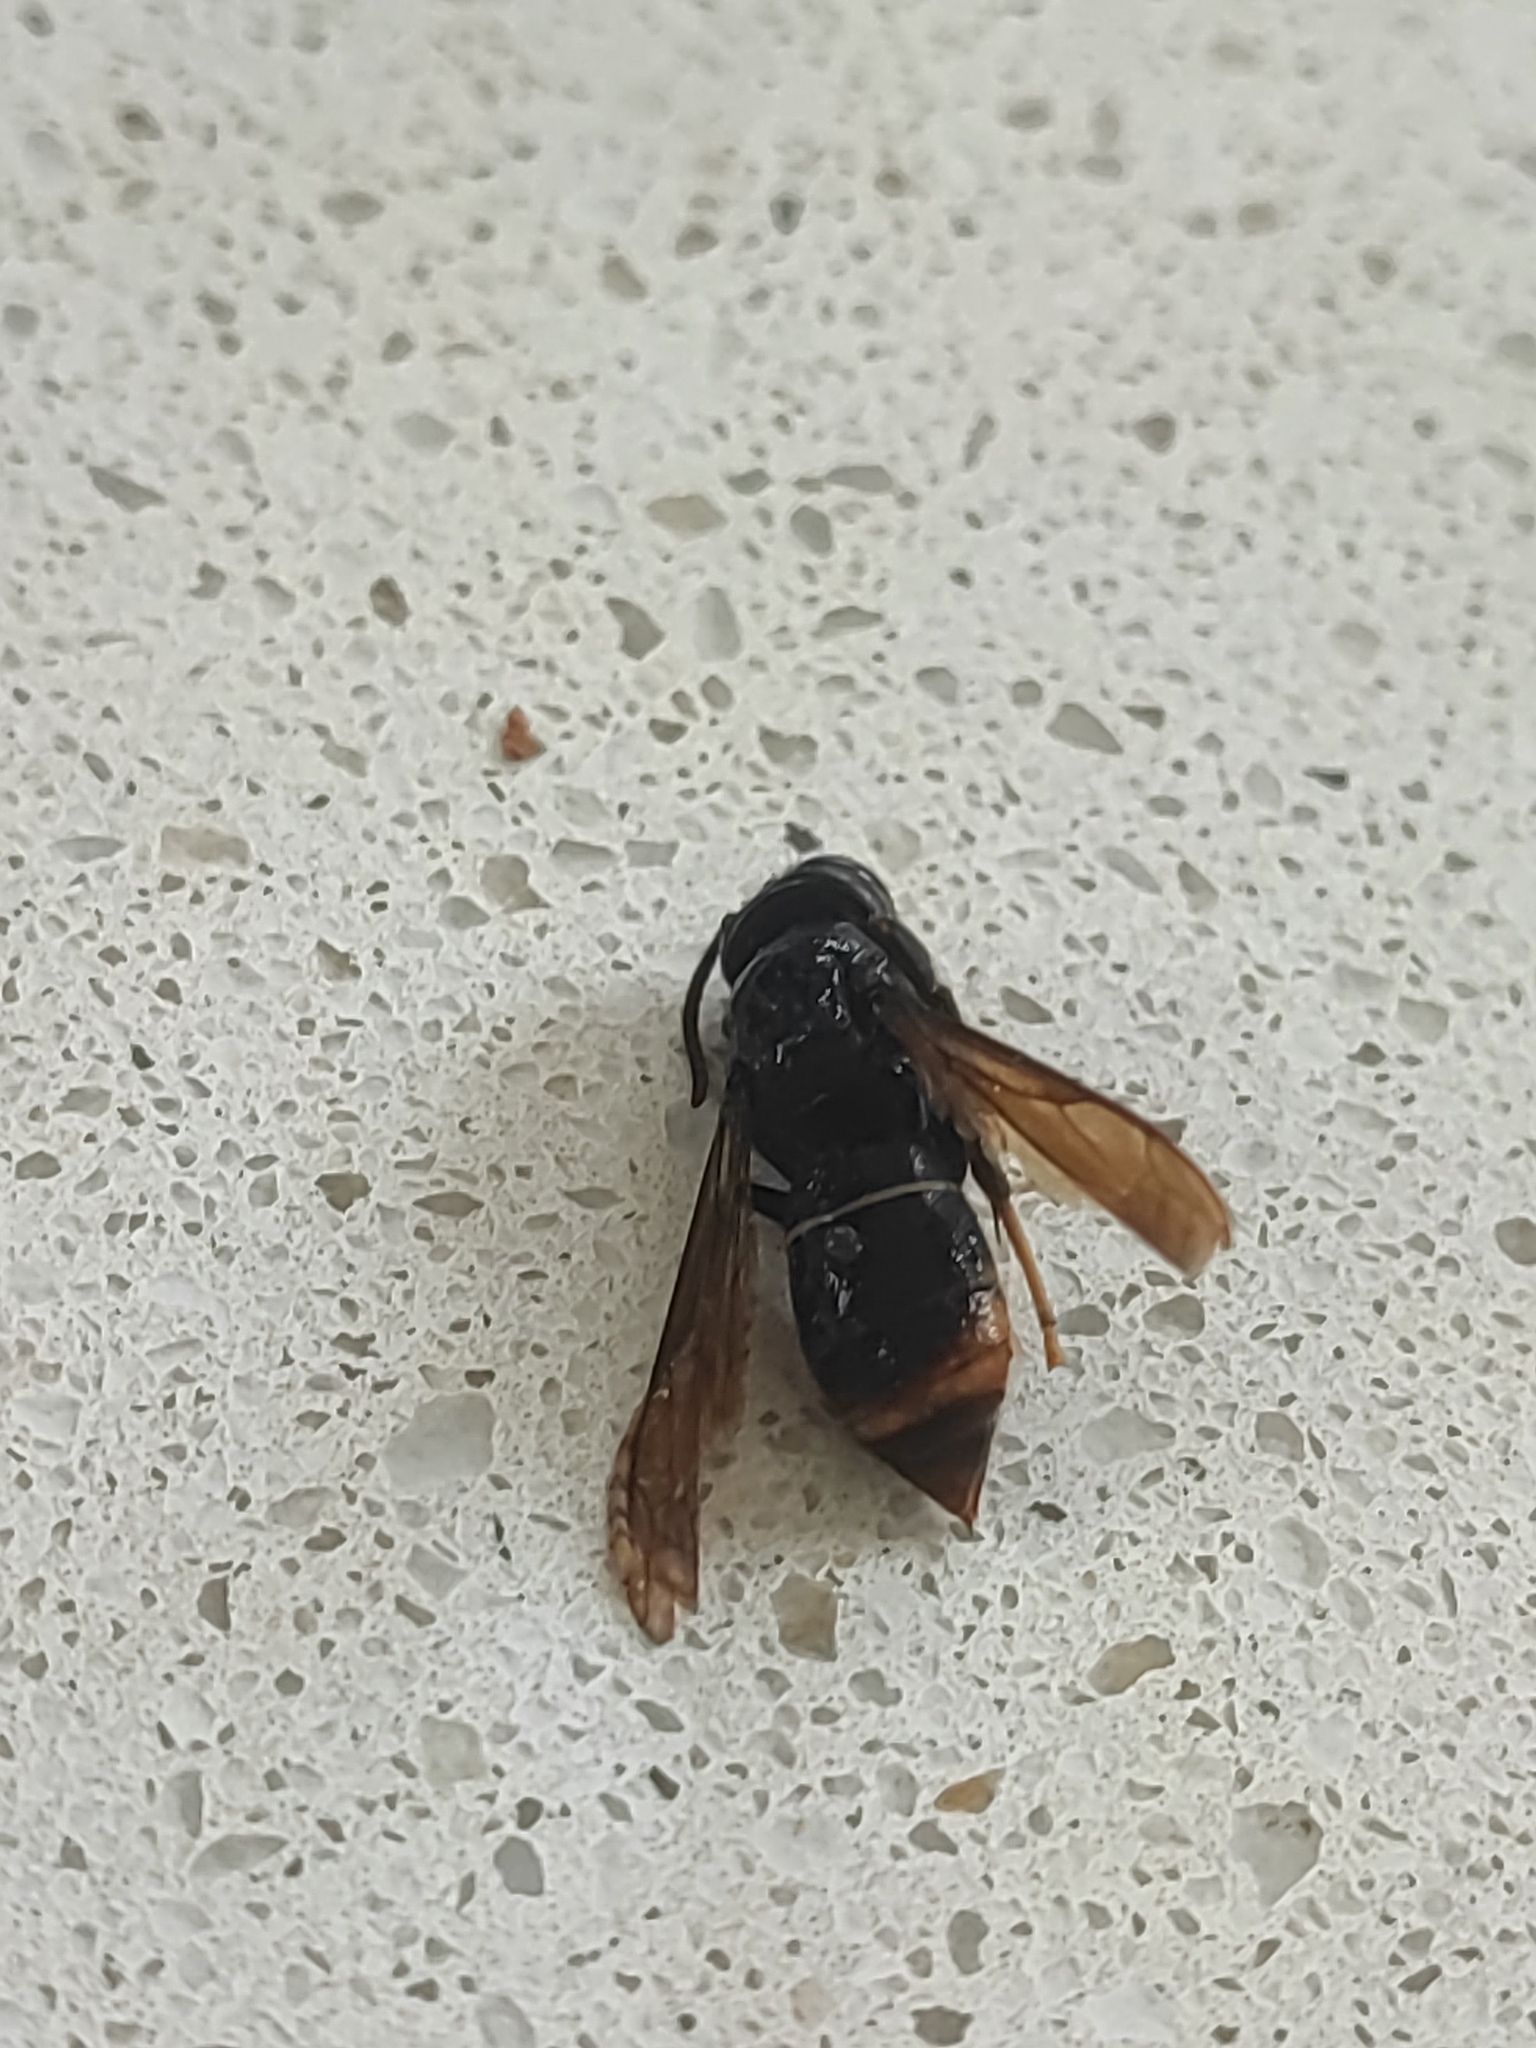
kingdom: Animalia
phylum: Arthropoda
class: Insecta
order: Hymenoptera
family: Vespidae
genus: Vespa
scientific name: Vespa velutina
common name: Asian hornet
